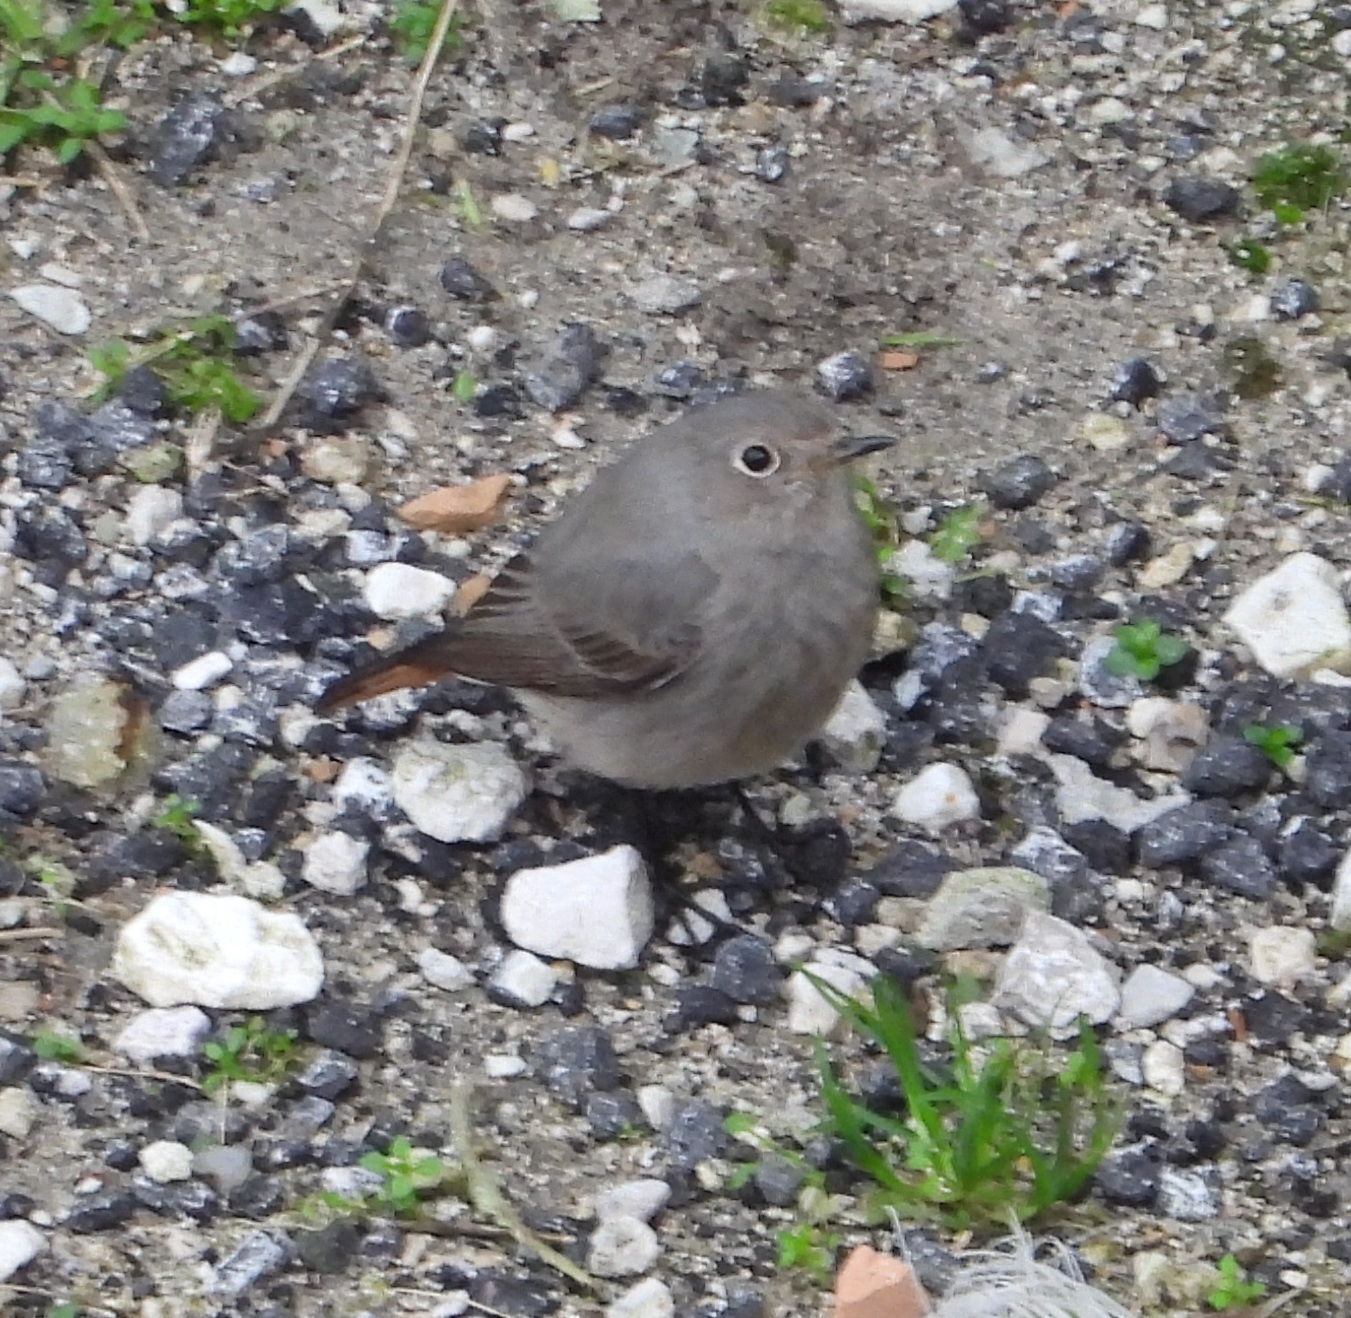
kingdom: Animalia
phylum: Chordata
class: Aves
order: Passeriformes
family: Muscicapidae
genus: Phoenicurus
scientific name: Phoenicurus ochruros
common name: Black redstart
